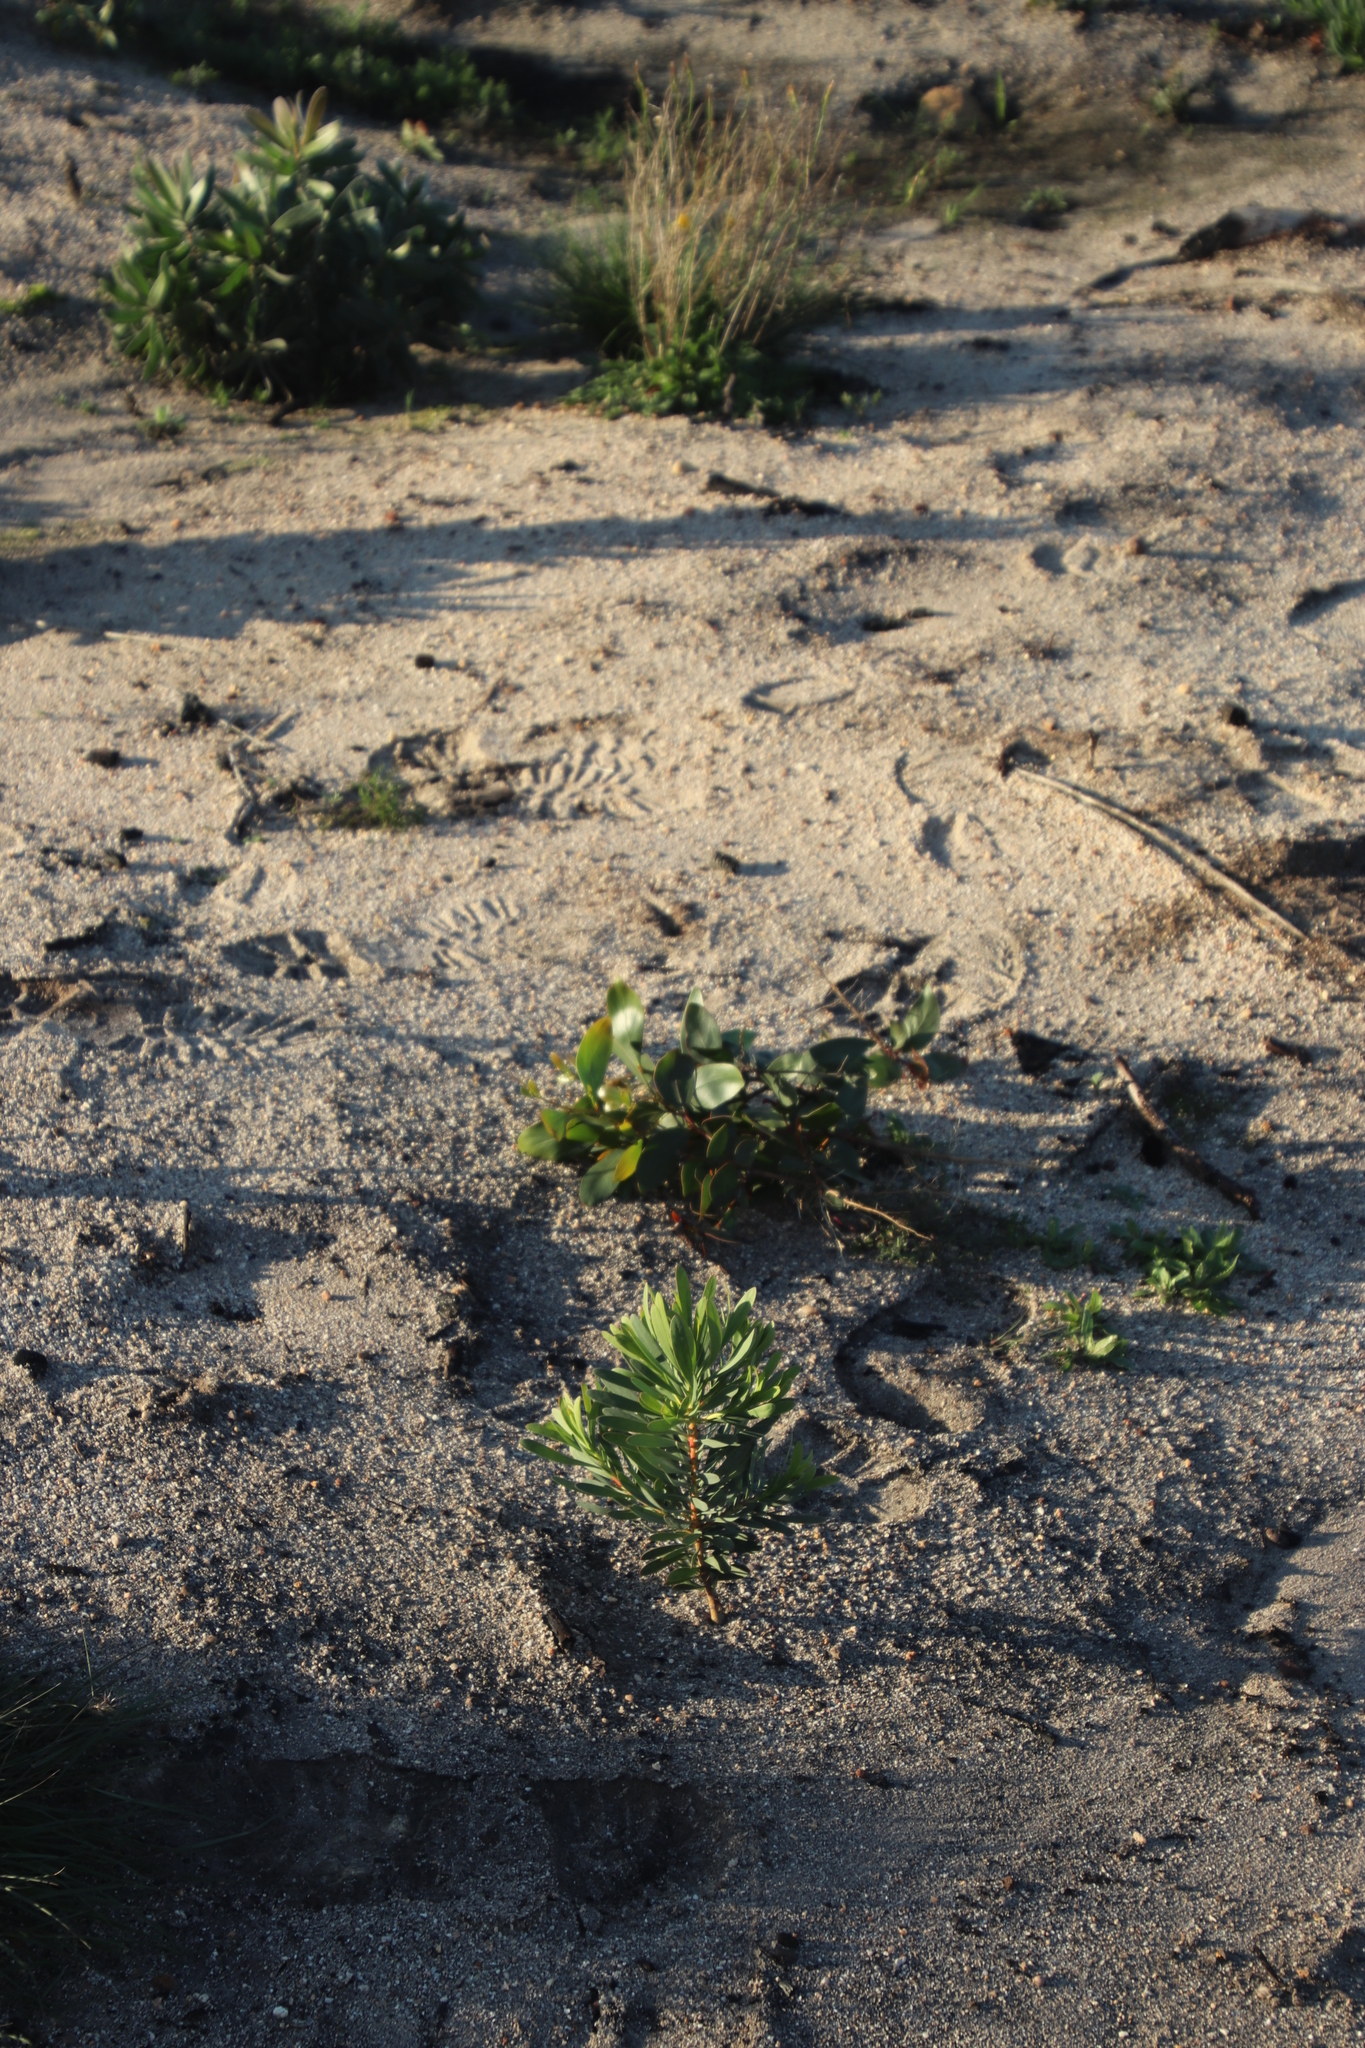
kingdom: Plantae
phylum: Tracheophyta
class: Magnoliopsida
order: Proteales
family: Proteaceae
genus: Protea
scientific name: Protea repens
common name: Sugarbush
